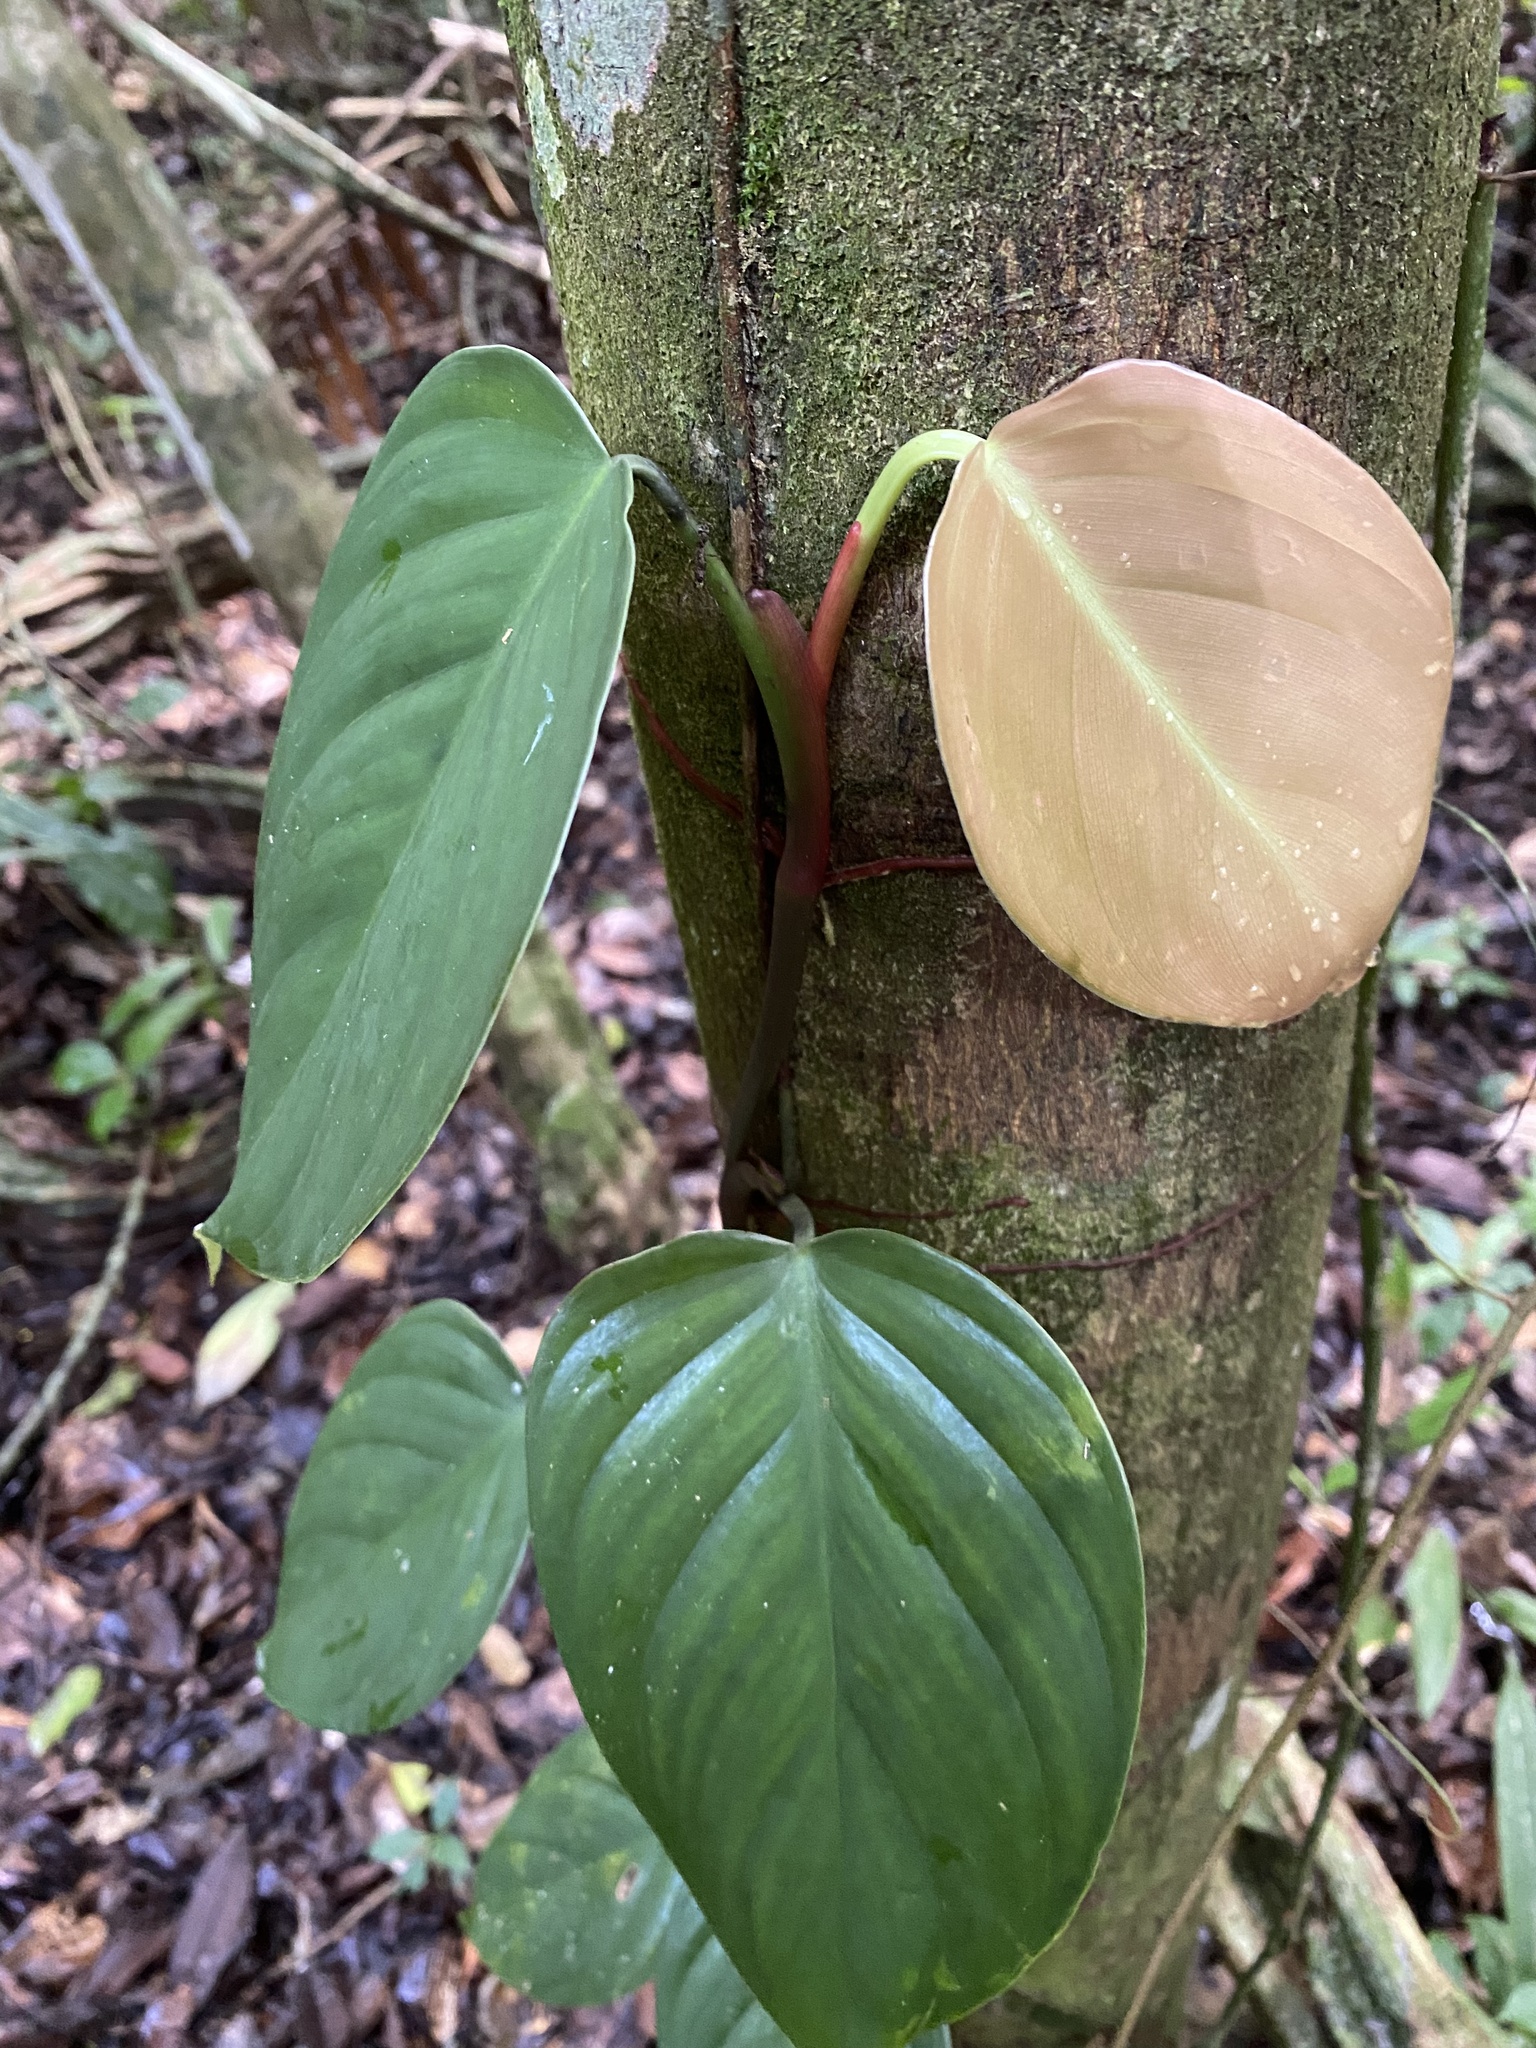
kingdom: Plantae
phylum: Tracheophyta
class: Liliopsida
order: Alismatales
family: Araceae
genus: Philodendron
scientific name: Philodendron fragrantissimum
